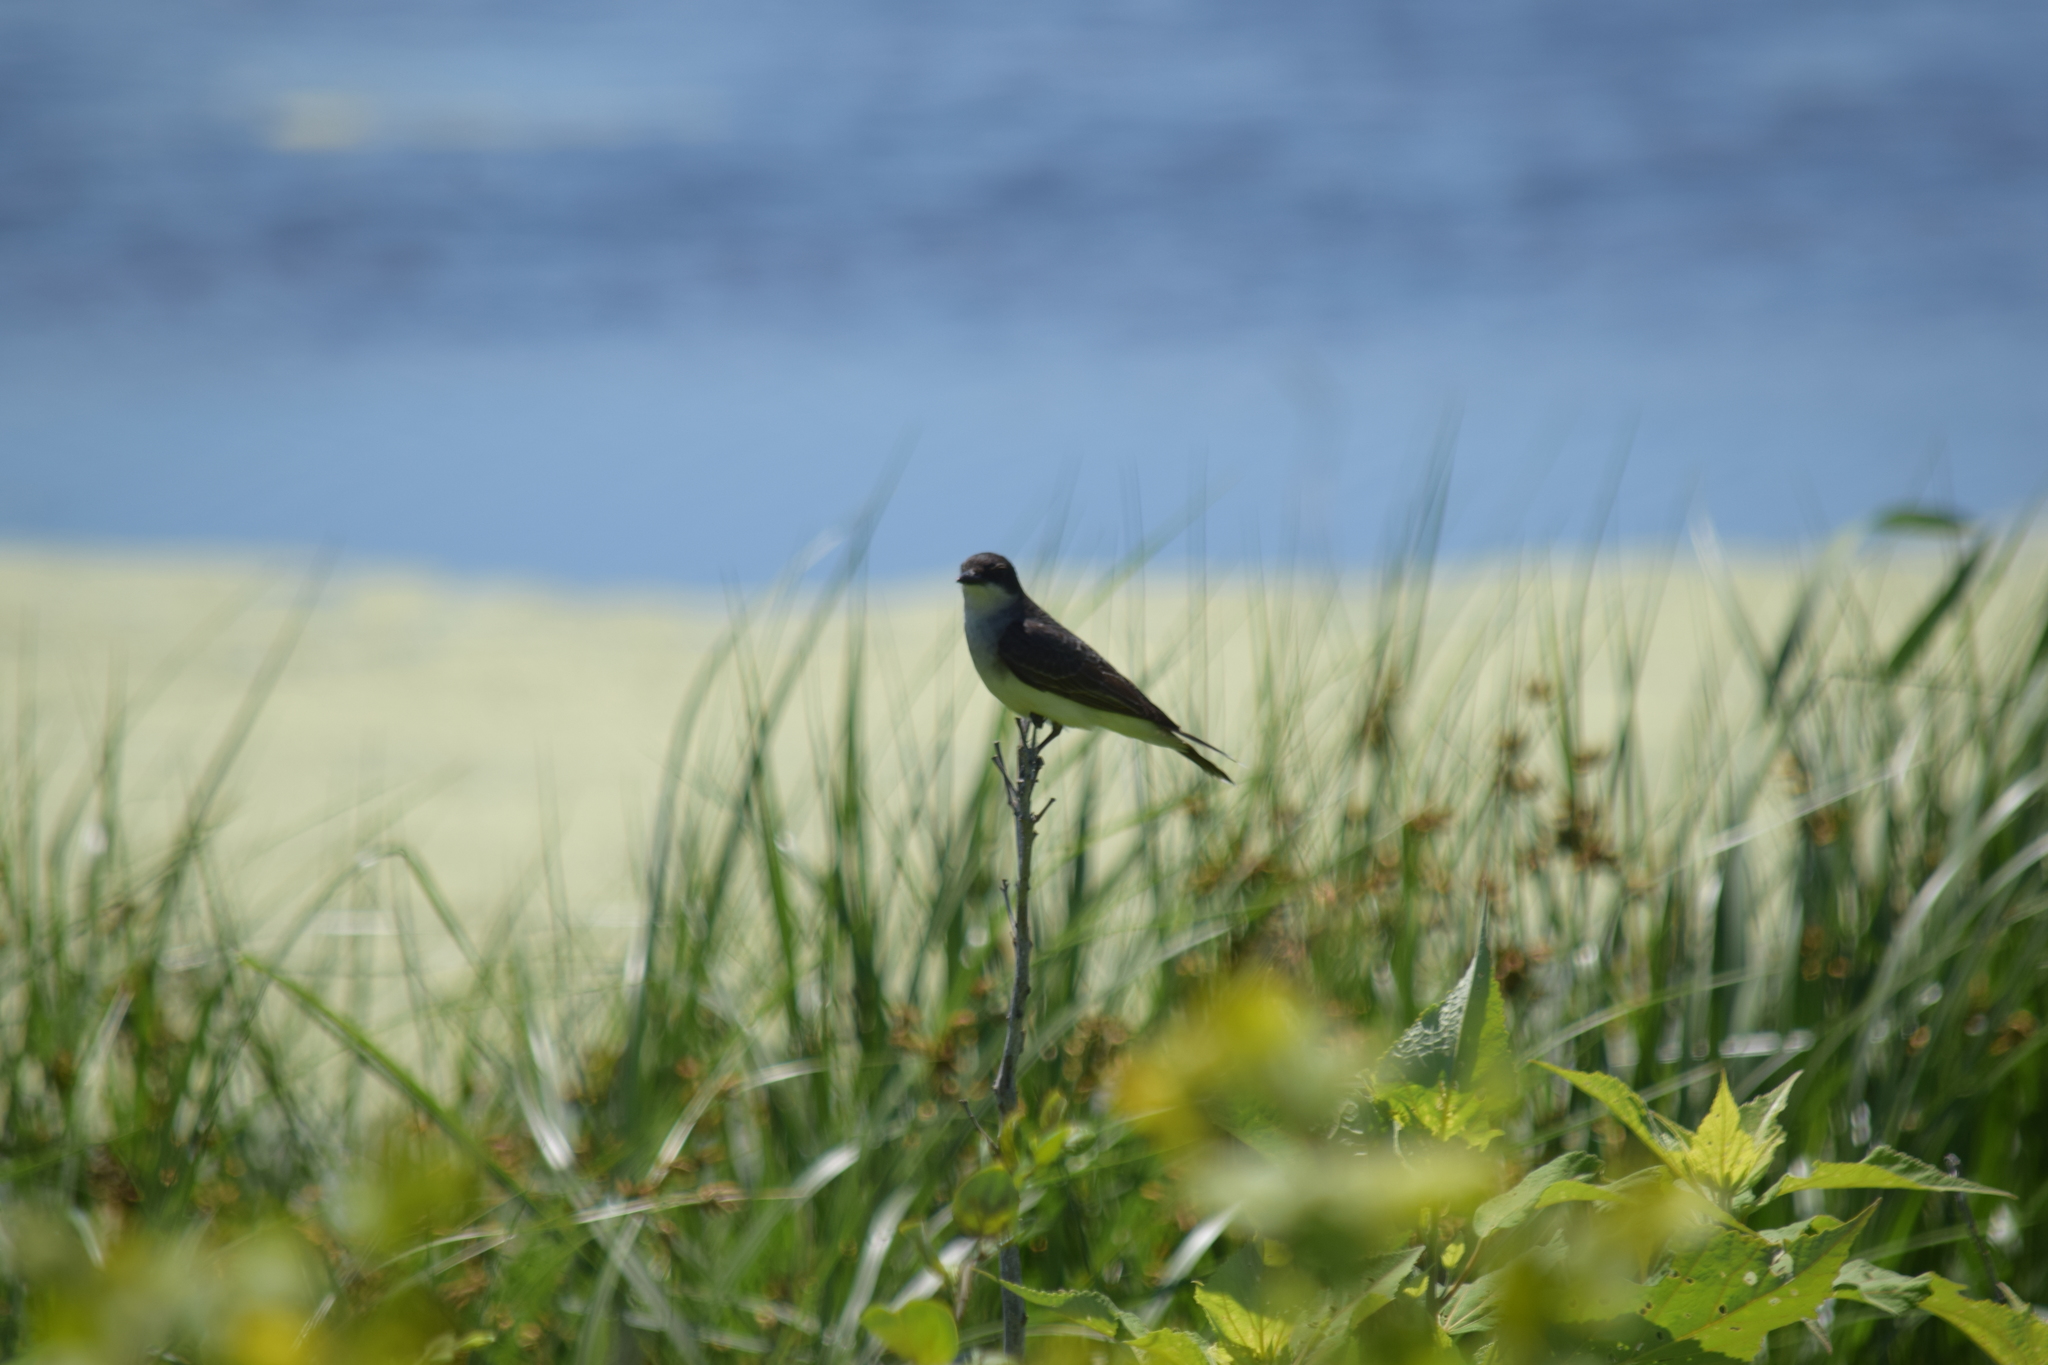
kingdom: Animalia
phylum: Chordata
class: Aves
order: Passeriformes
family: Tyrannidae
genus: Tyrannus
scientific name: Tyrannus tyrannus
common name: Eastern kingbird
